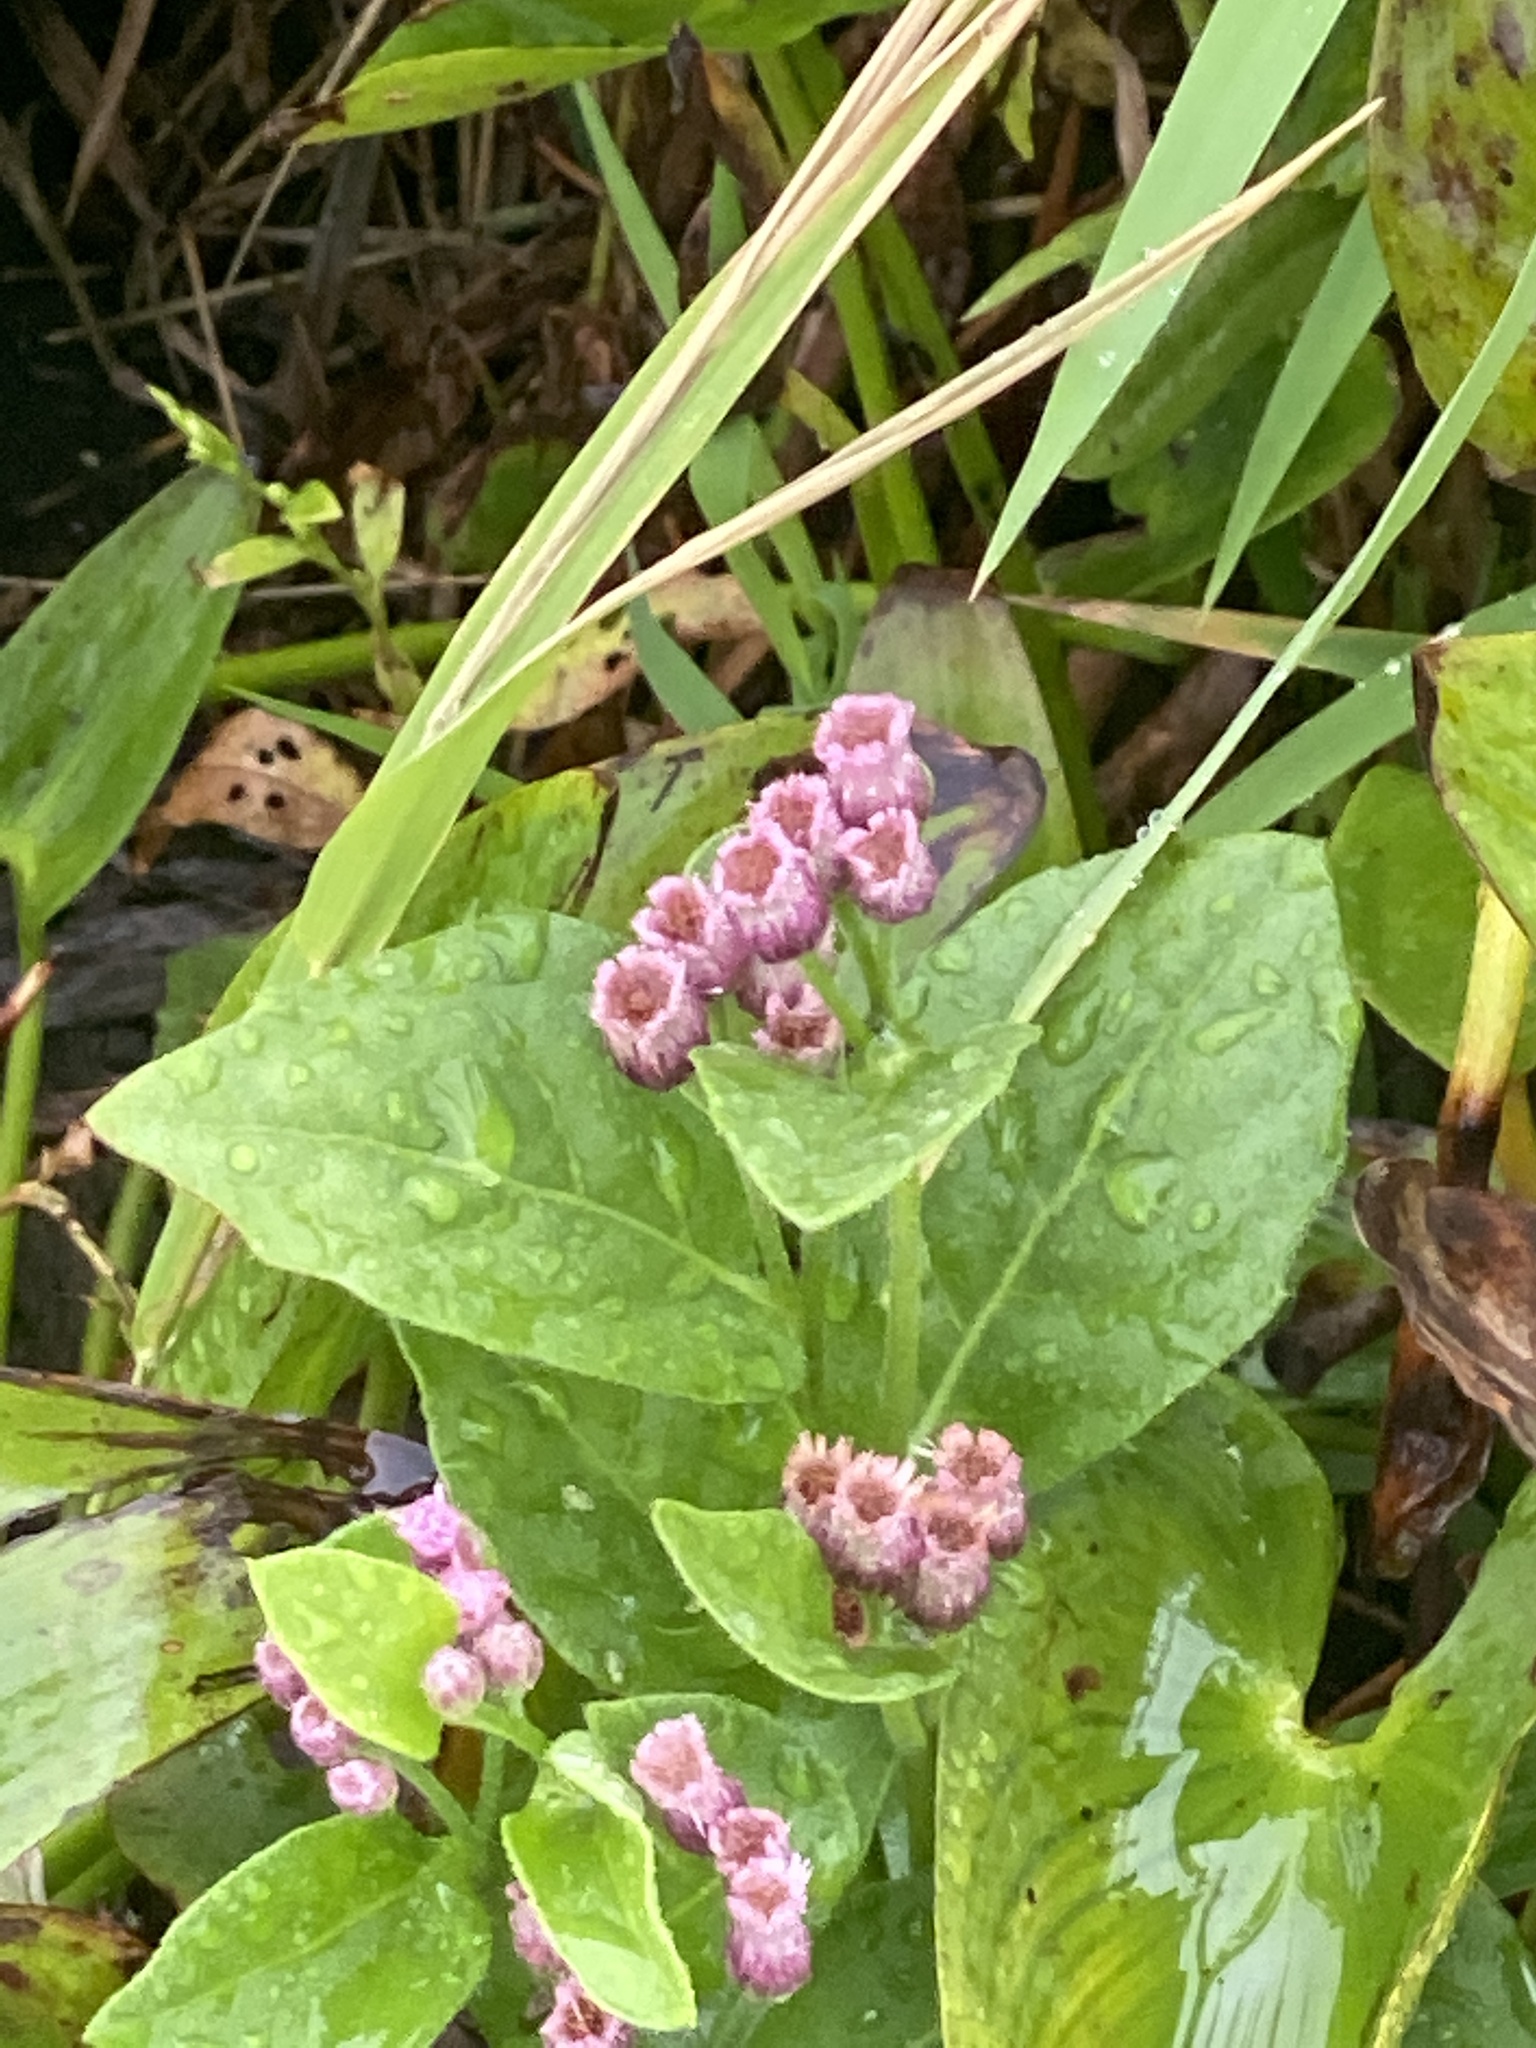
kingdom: Plantae
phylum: Tracheophyta
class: Magnoliopsida
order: Asterales
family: Asteraceae
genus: Pluchea
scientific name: Pluchea odorata
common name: Saltmarsh fleabane
